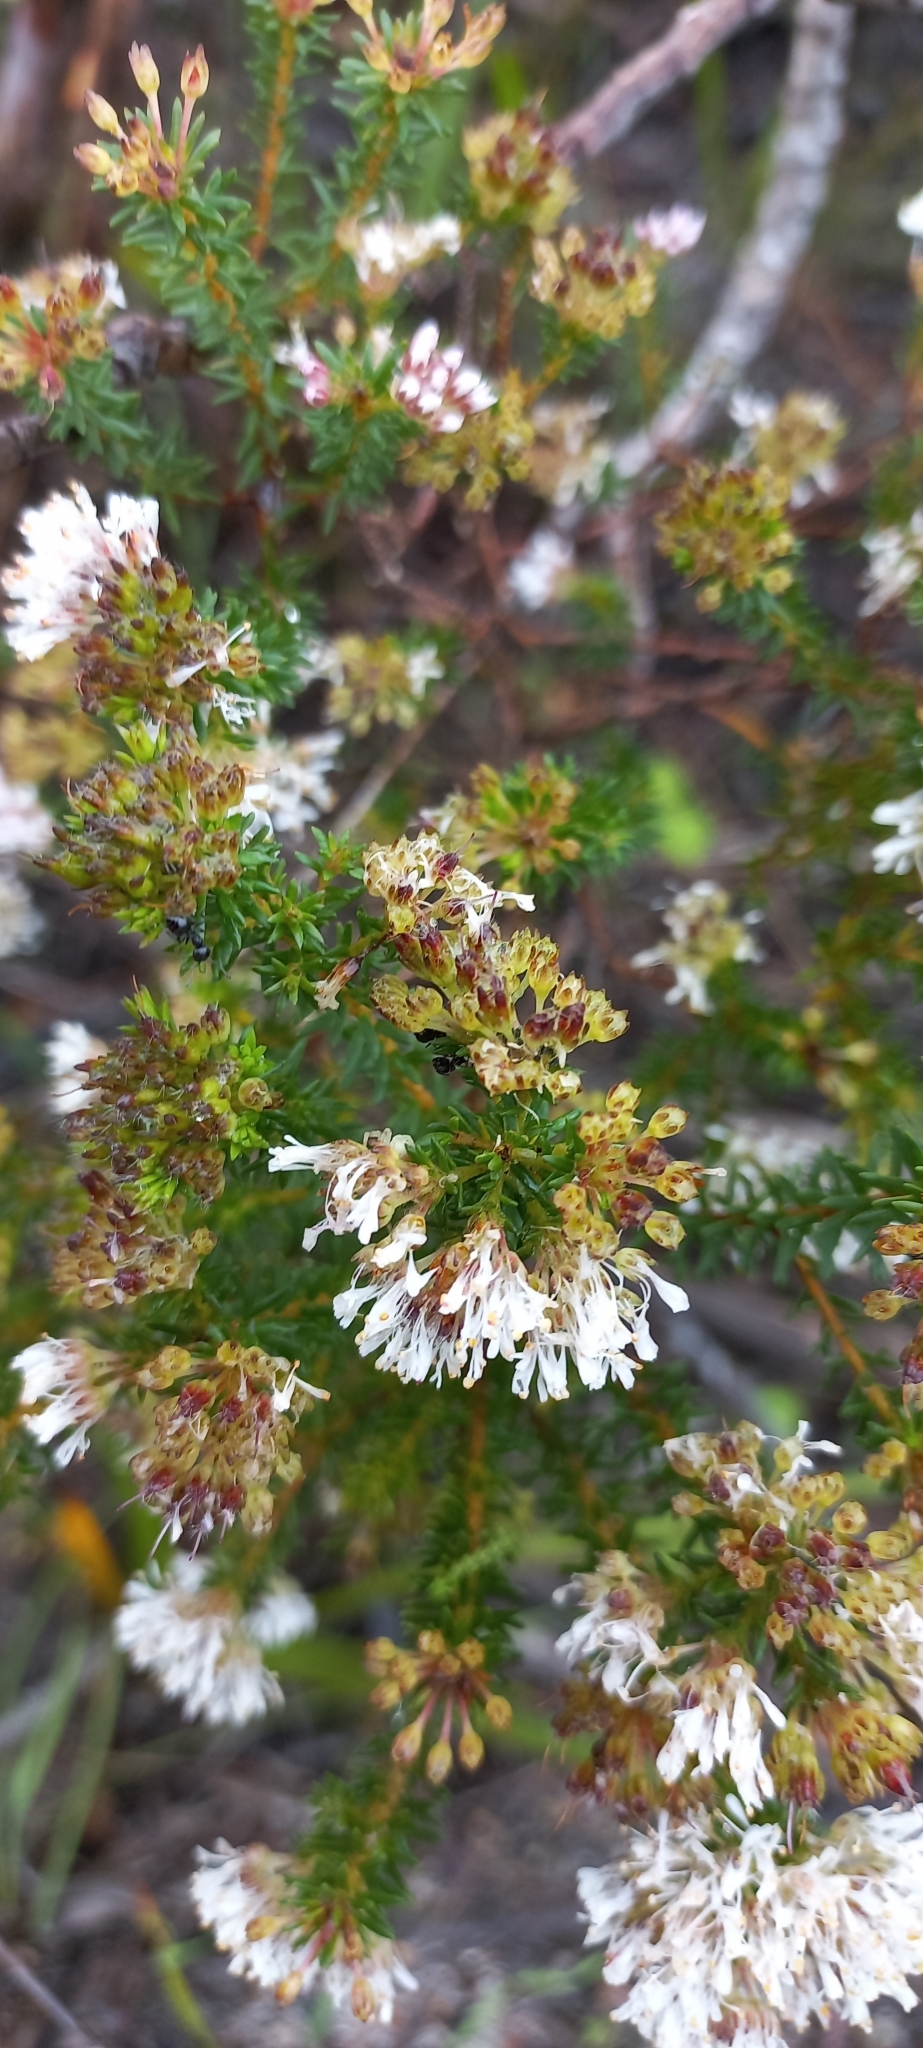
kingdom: Plantae
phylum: Tracheophyta
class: Magnoliopsida
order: Sapindales
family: Rutaceae
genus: Agathosma
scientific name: Agathosma capensis
